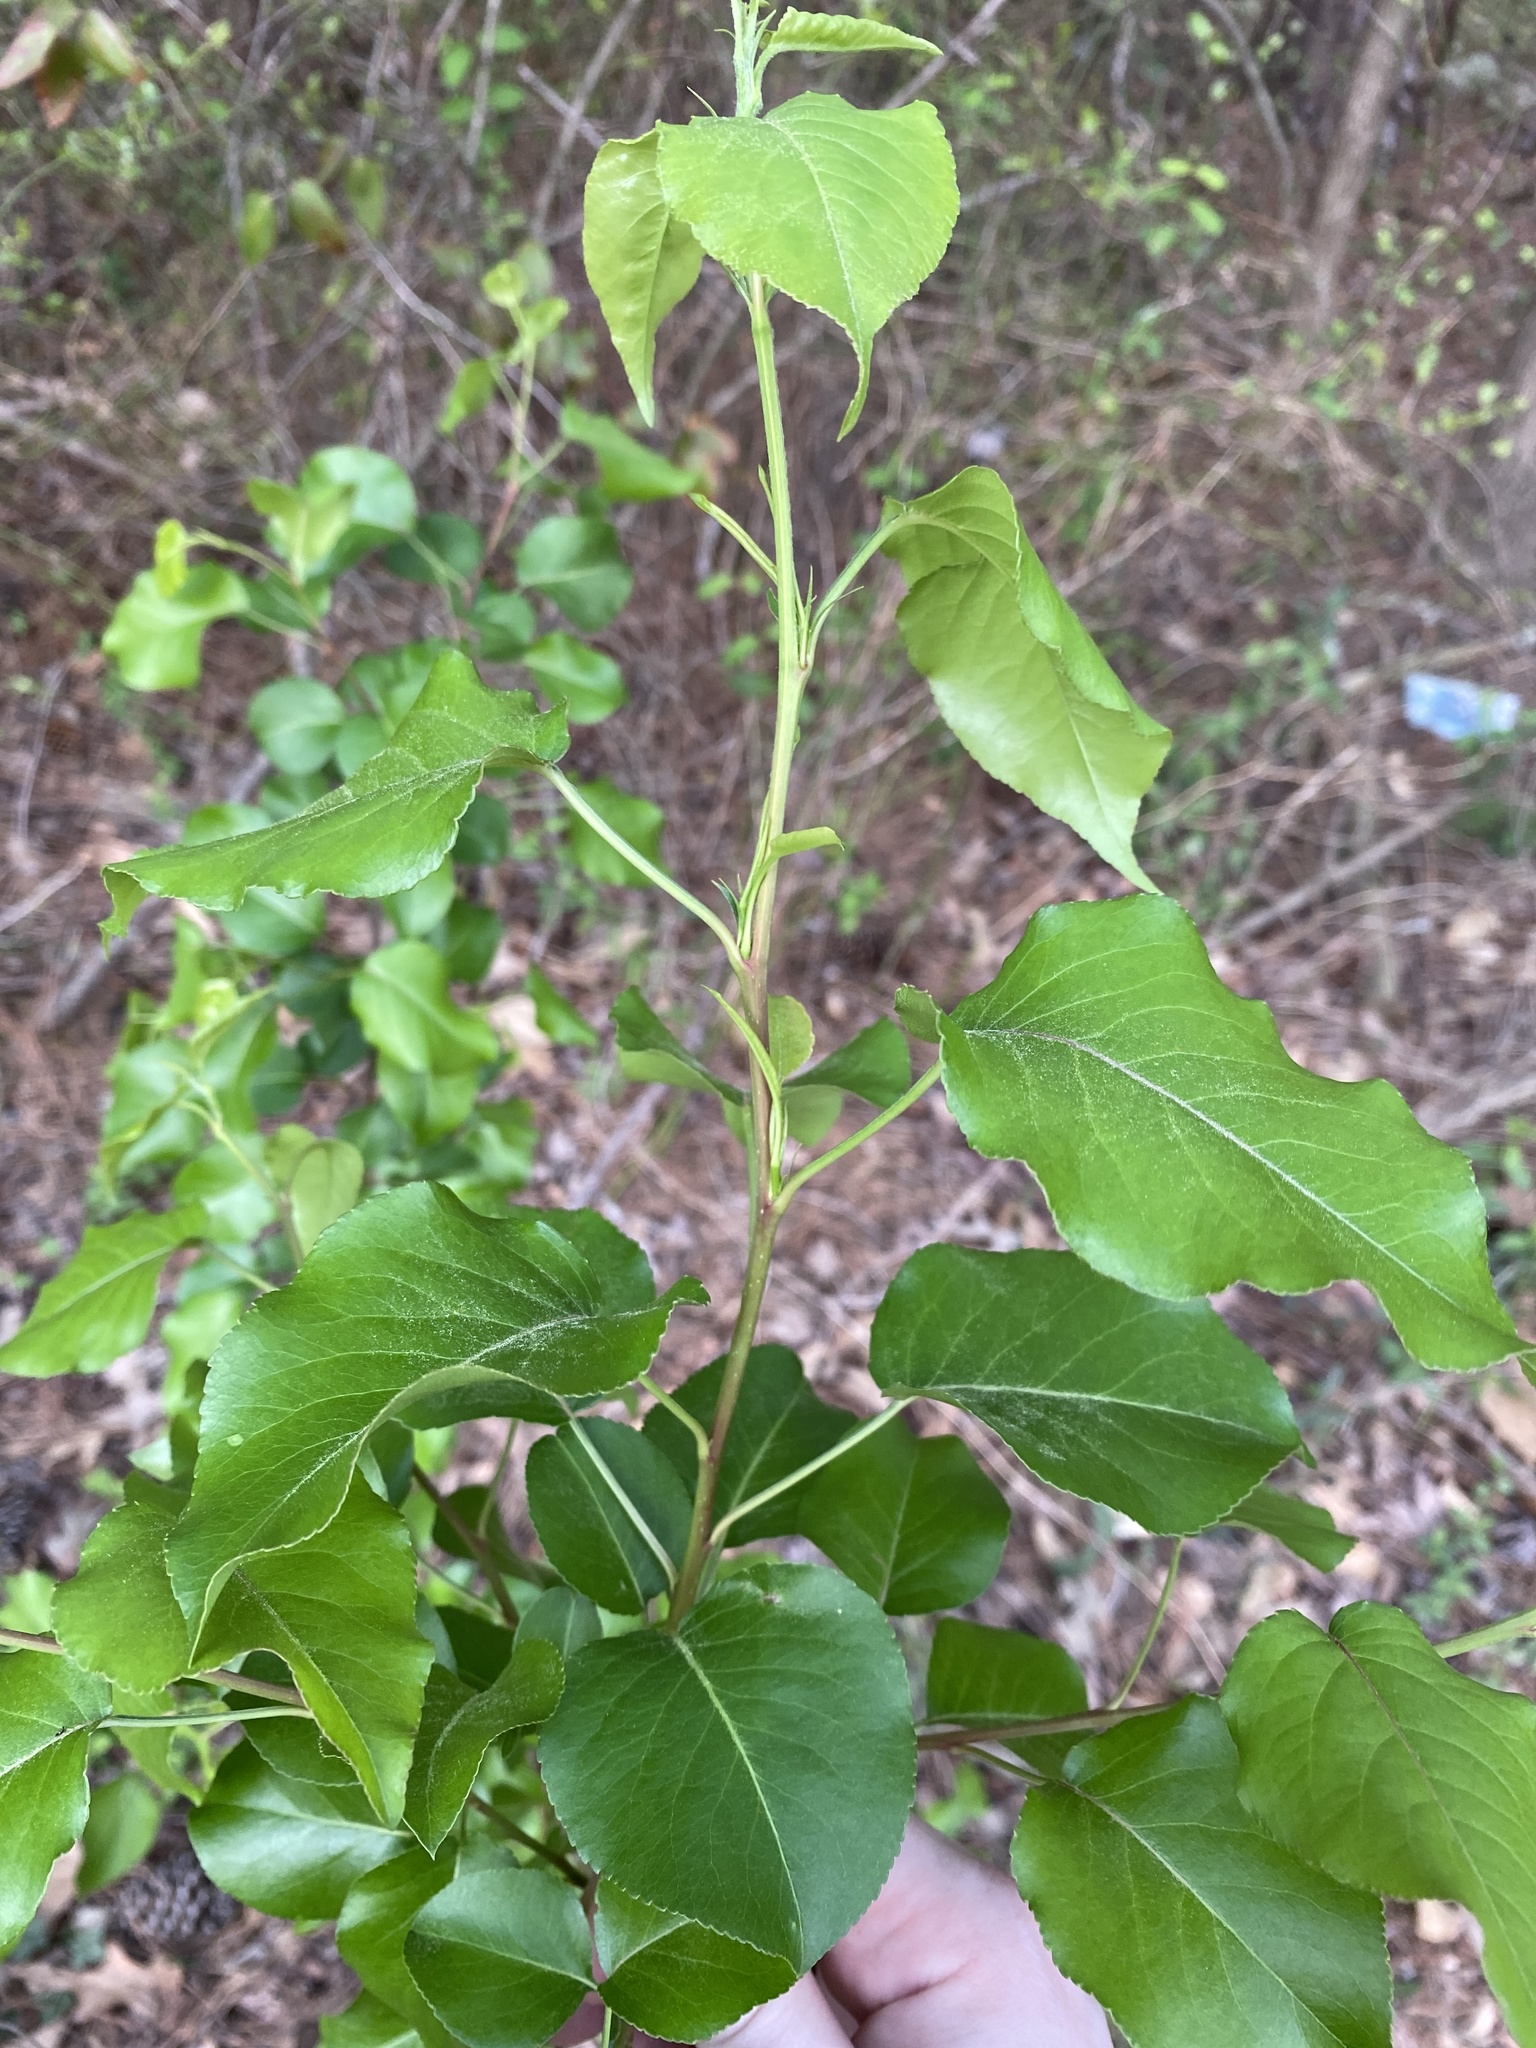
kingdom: Plantae
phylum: Tracheophyta
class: Magnoliopsida
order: Rosales
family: Rosaceae
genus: Pyrus
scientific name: Pyrus calleryana
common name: Callery pear
